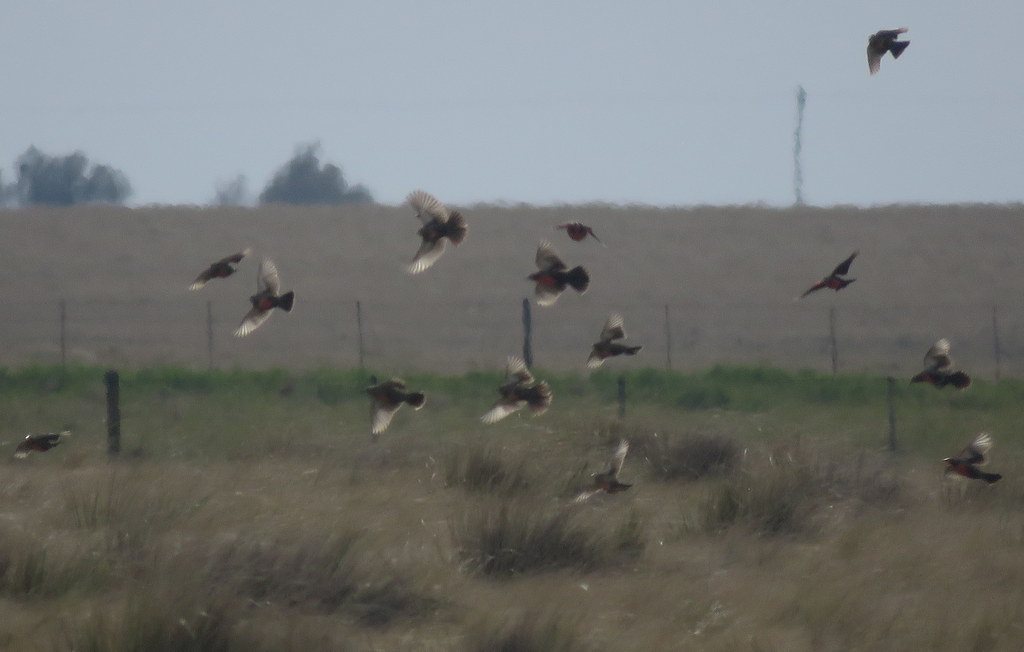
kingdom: Animalia
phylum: Chordata
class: Aves
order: Passeriformes
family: Icteridae
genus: Sturnella
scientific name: Sturnella loyca
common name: Long-tailed meadowlark
